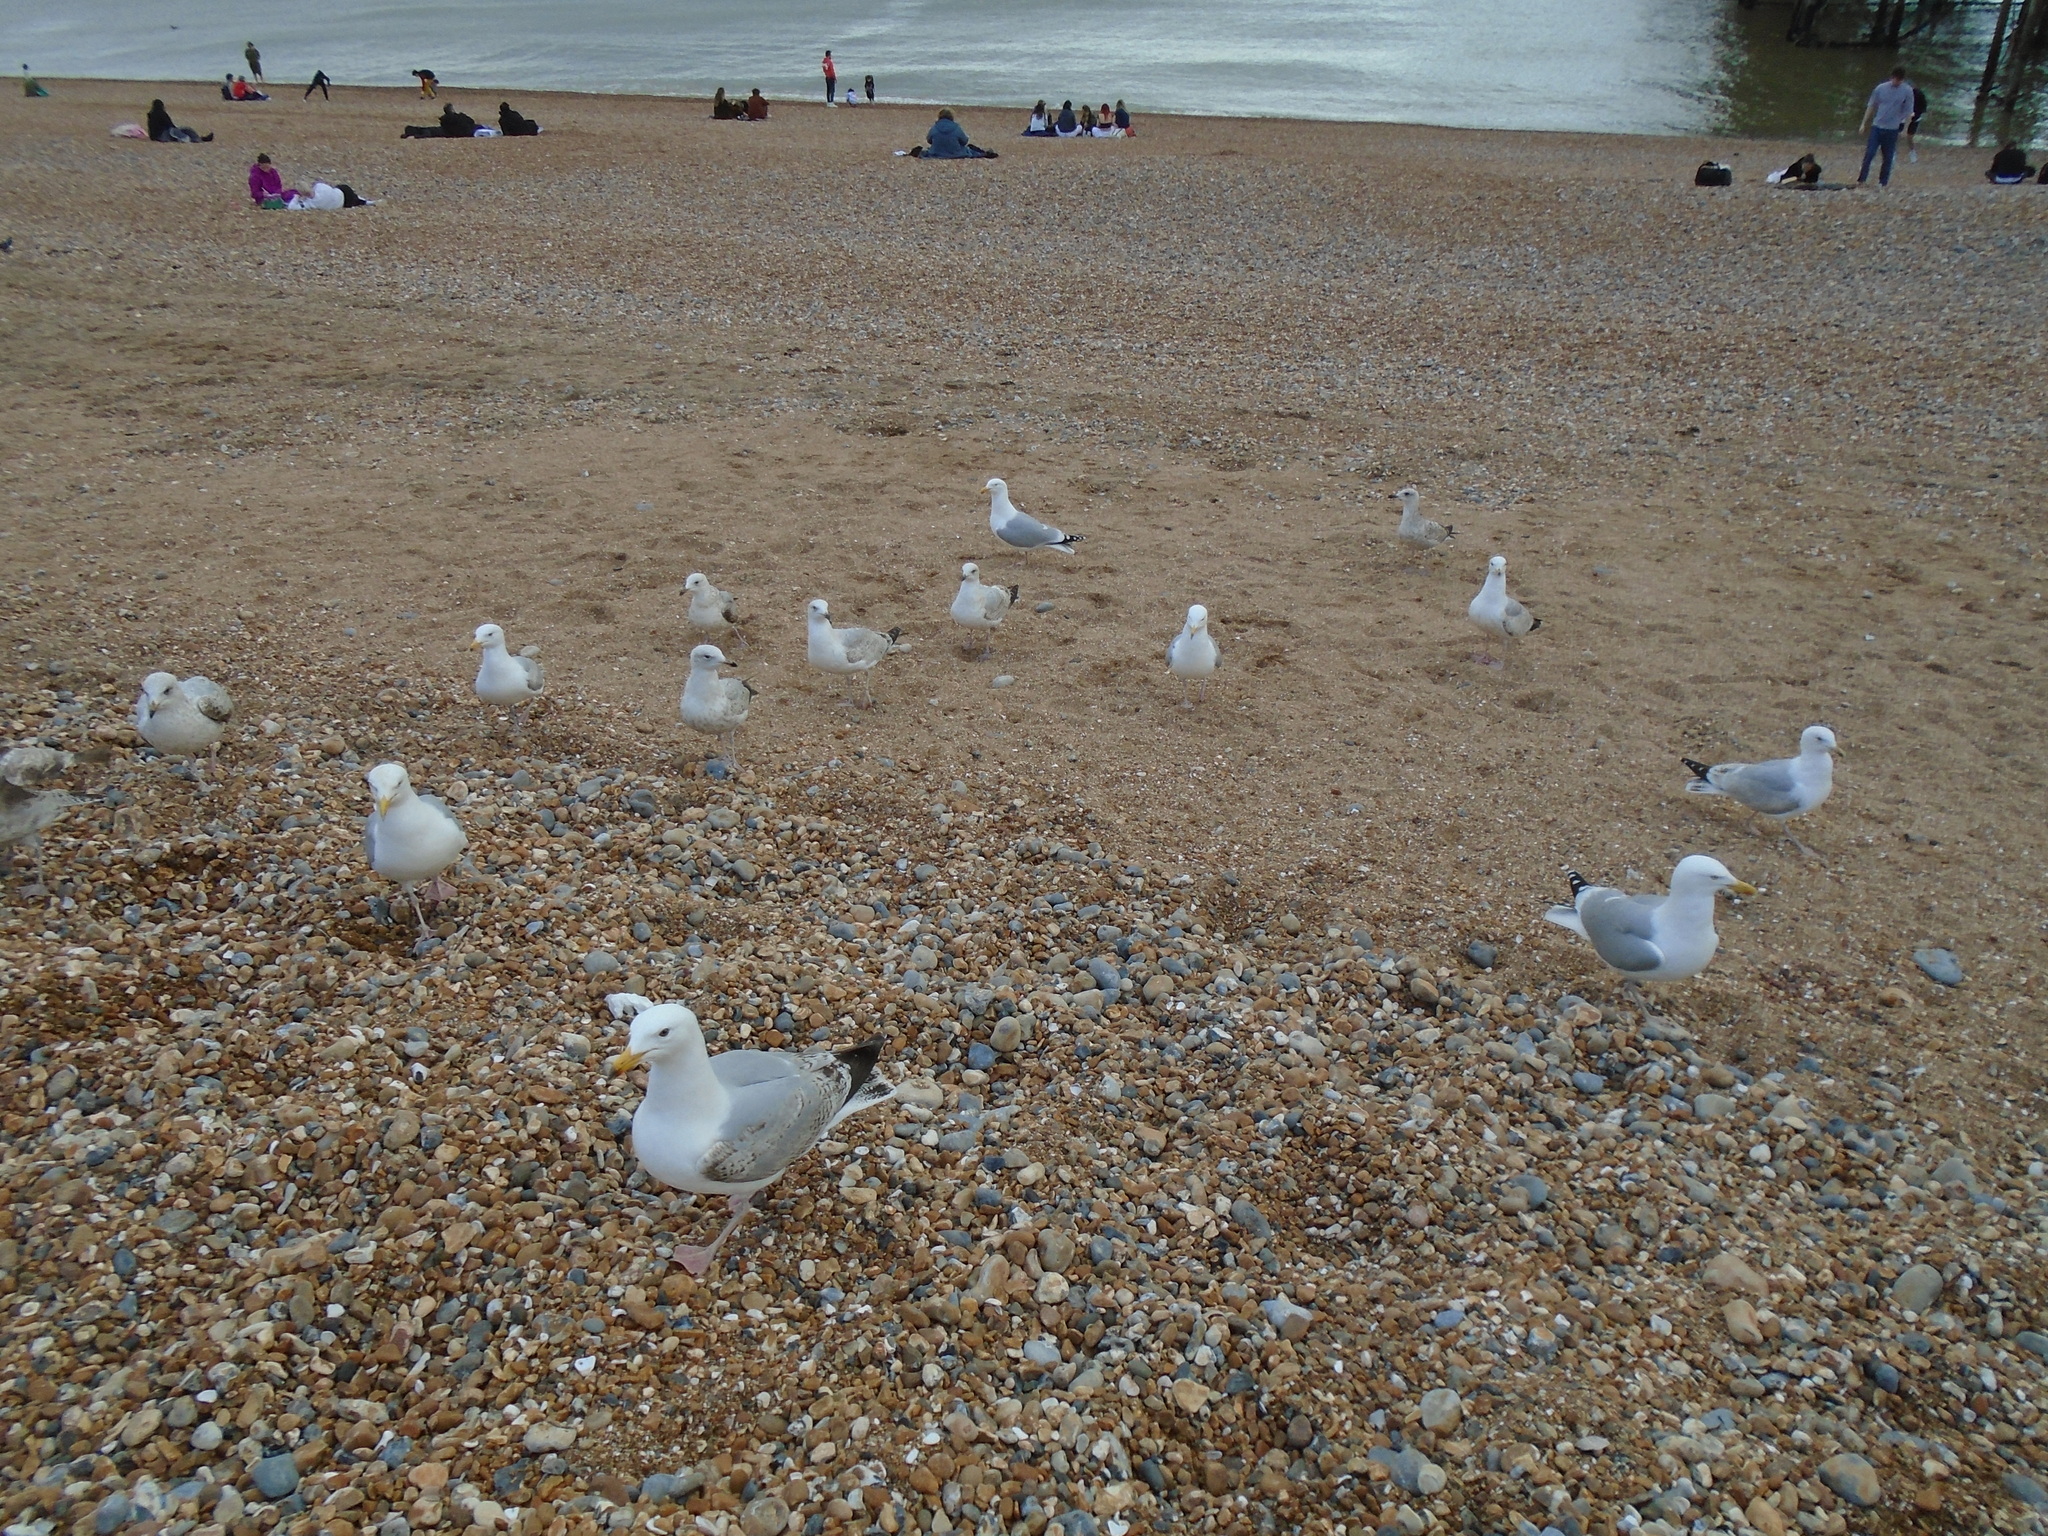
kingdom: Animalia
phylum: Chordata
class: Aves
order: Charadriiformes
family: Laridae
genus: Larus
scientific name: Larus argentatus
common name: Herring gull
